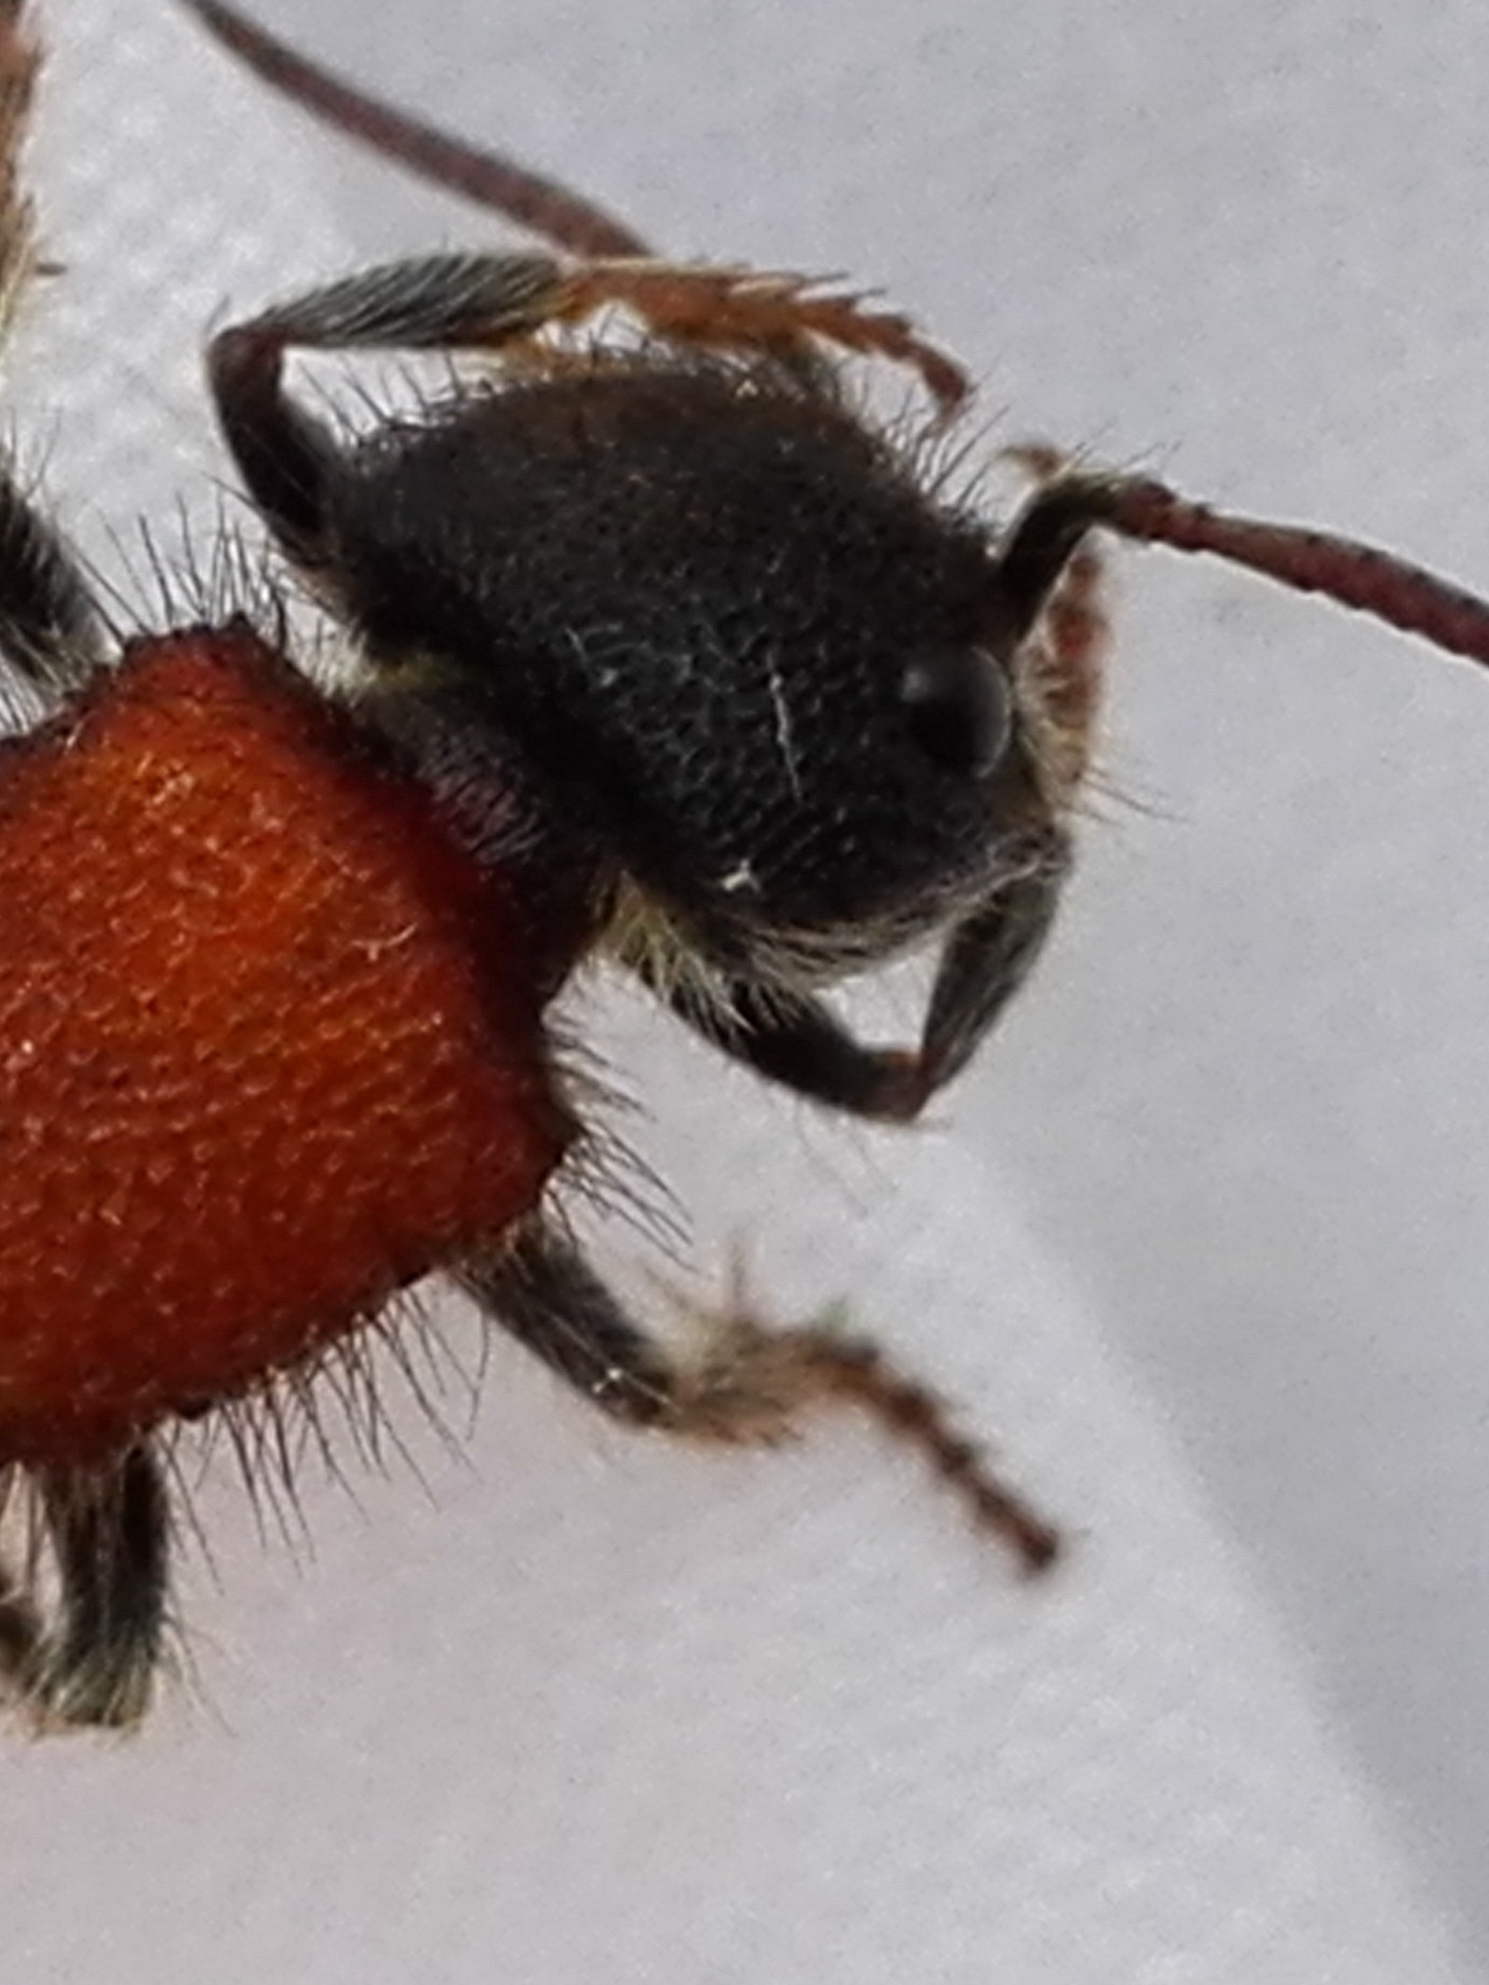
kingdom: Animalia
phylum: Arthropoda
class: Insecta
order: Hymenoptera
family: Mutillidae
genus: Tropidotilla
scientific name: Tropidotilla litoralis
